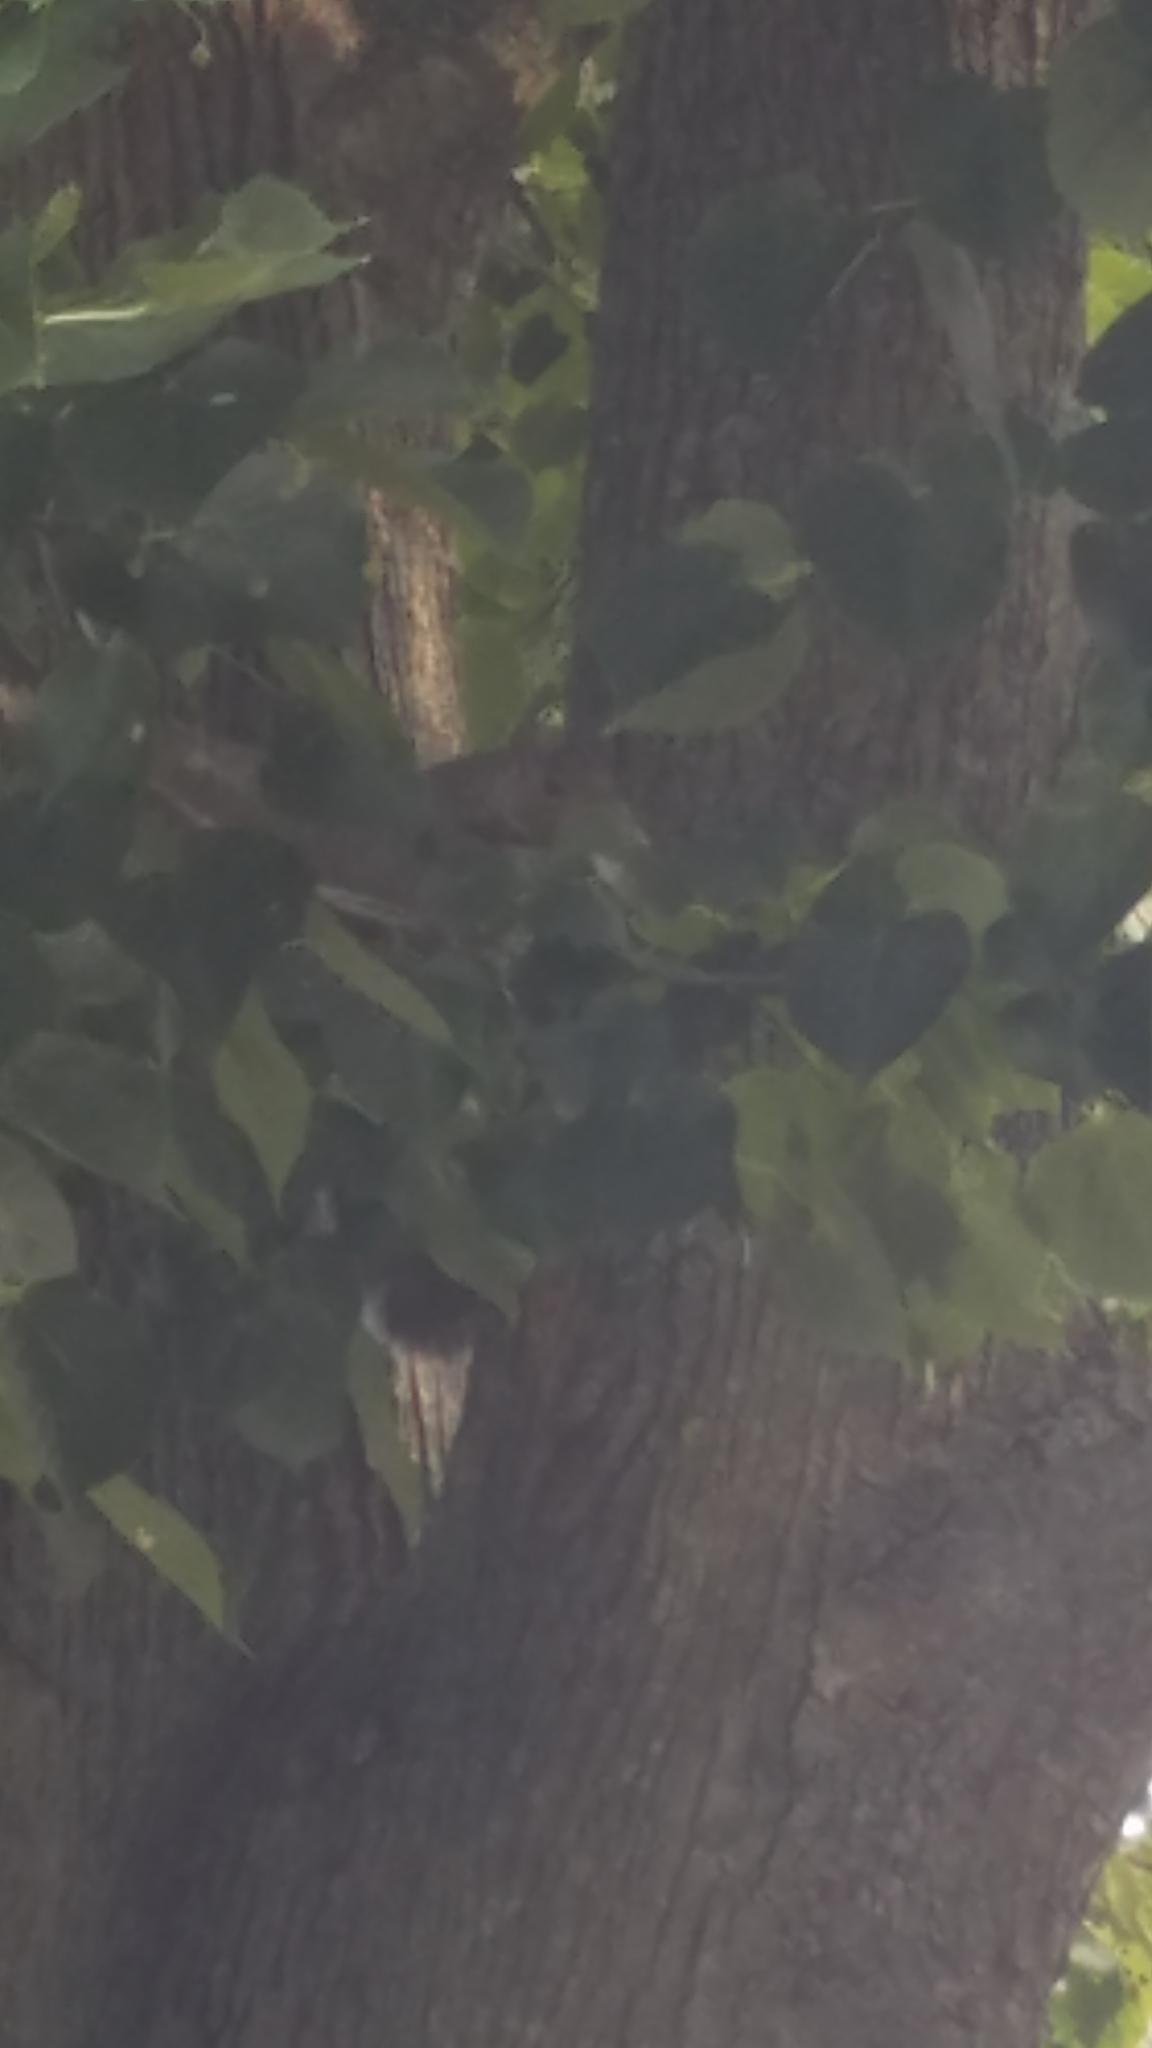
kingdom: Animalia
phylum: Chordata
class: Mammalia
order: Rodentia
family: Sciuridae
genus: Sciurus
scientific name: Sciurus carolinensis
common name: Eastern gray squirrel
